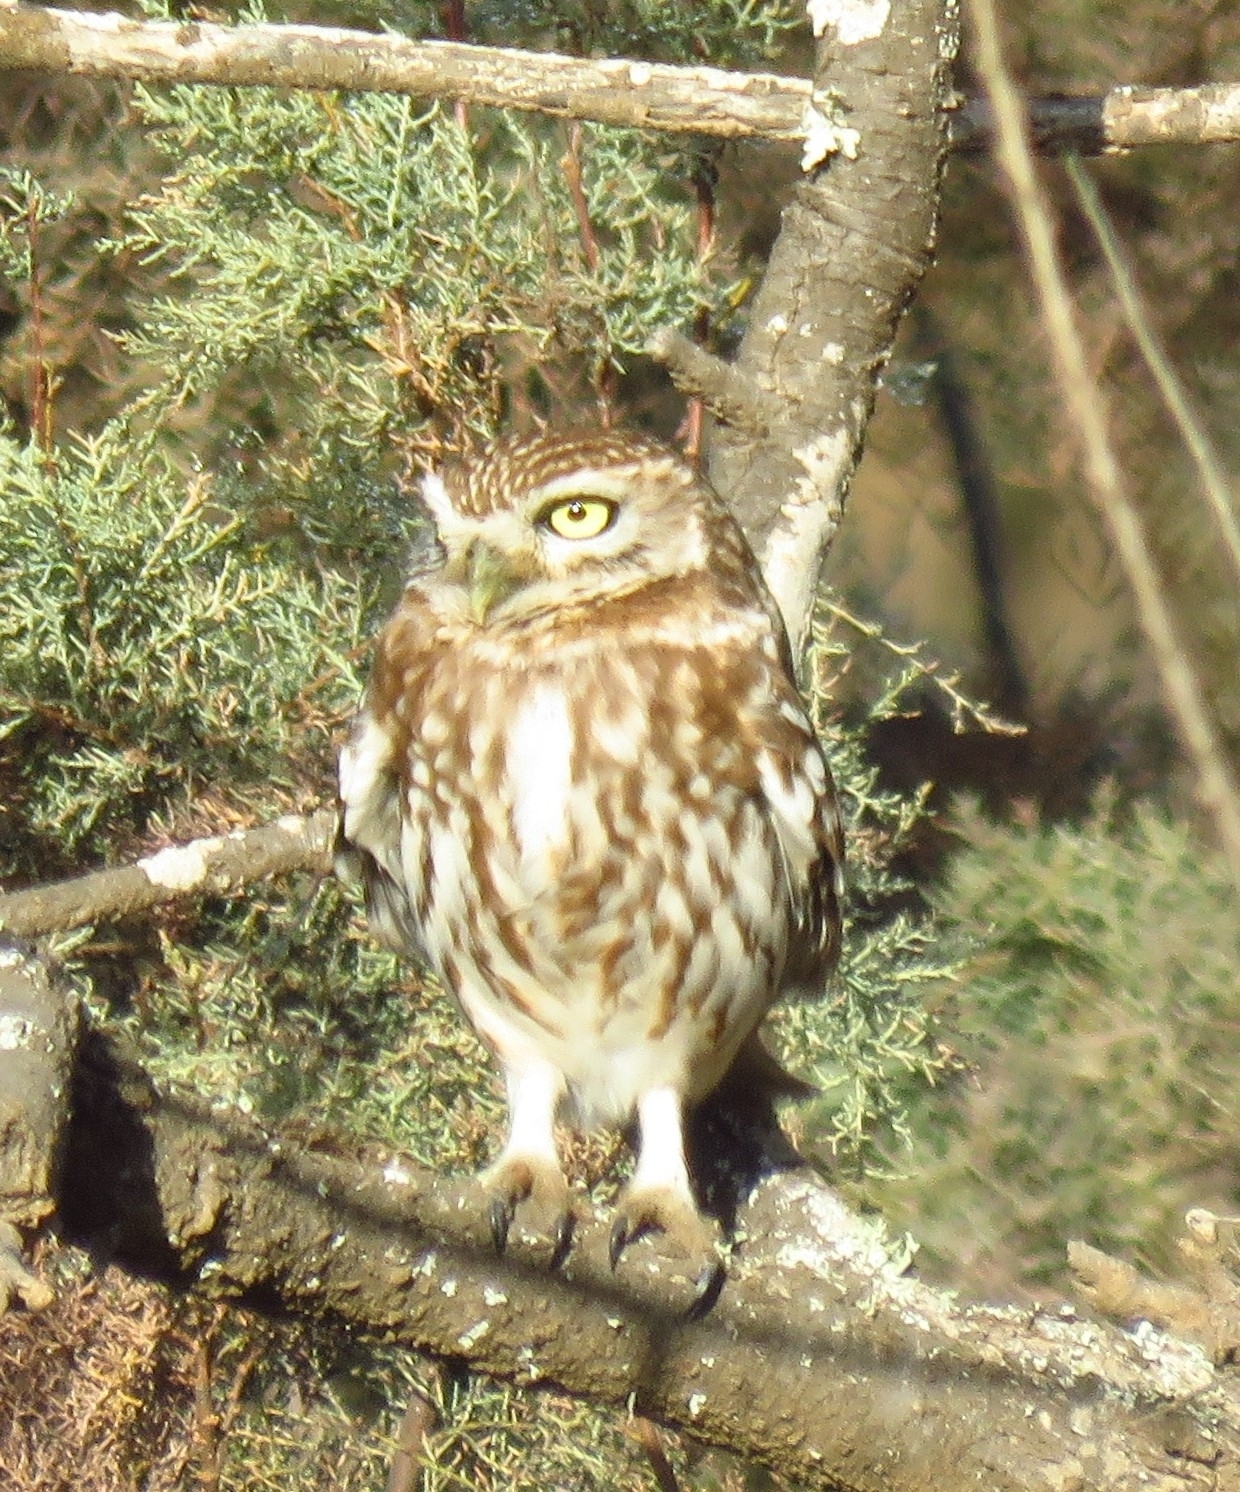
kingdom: Animalia
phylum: Chordata
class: Aves
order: Strigiformes
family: Strigidae
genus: Athene
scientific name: Athene noctua
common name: Little owl
